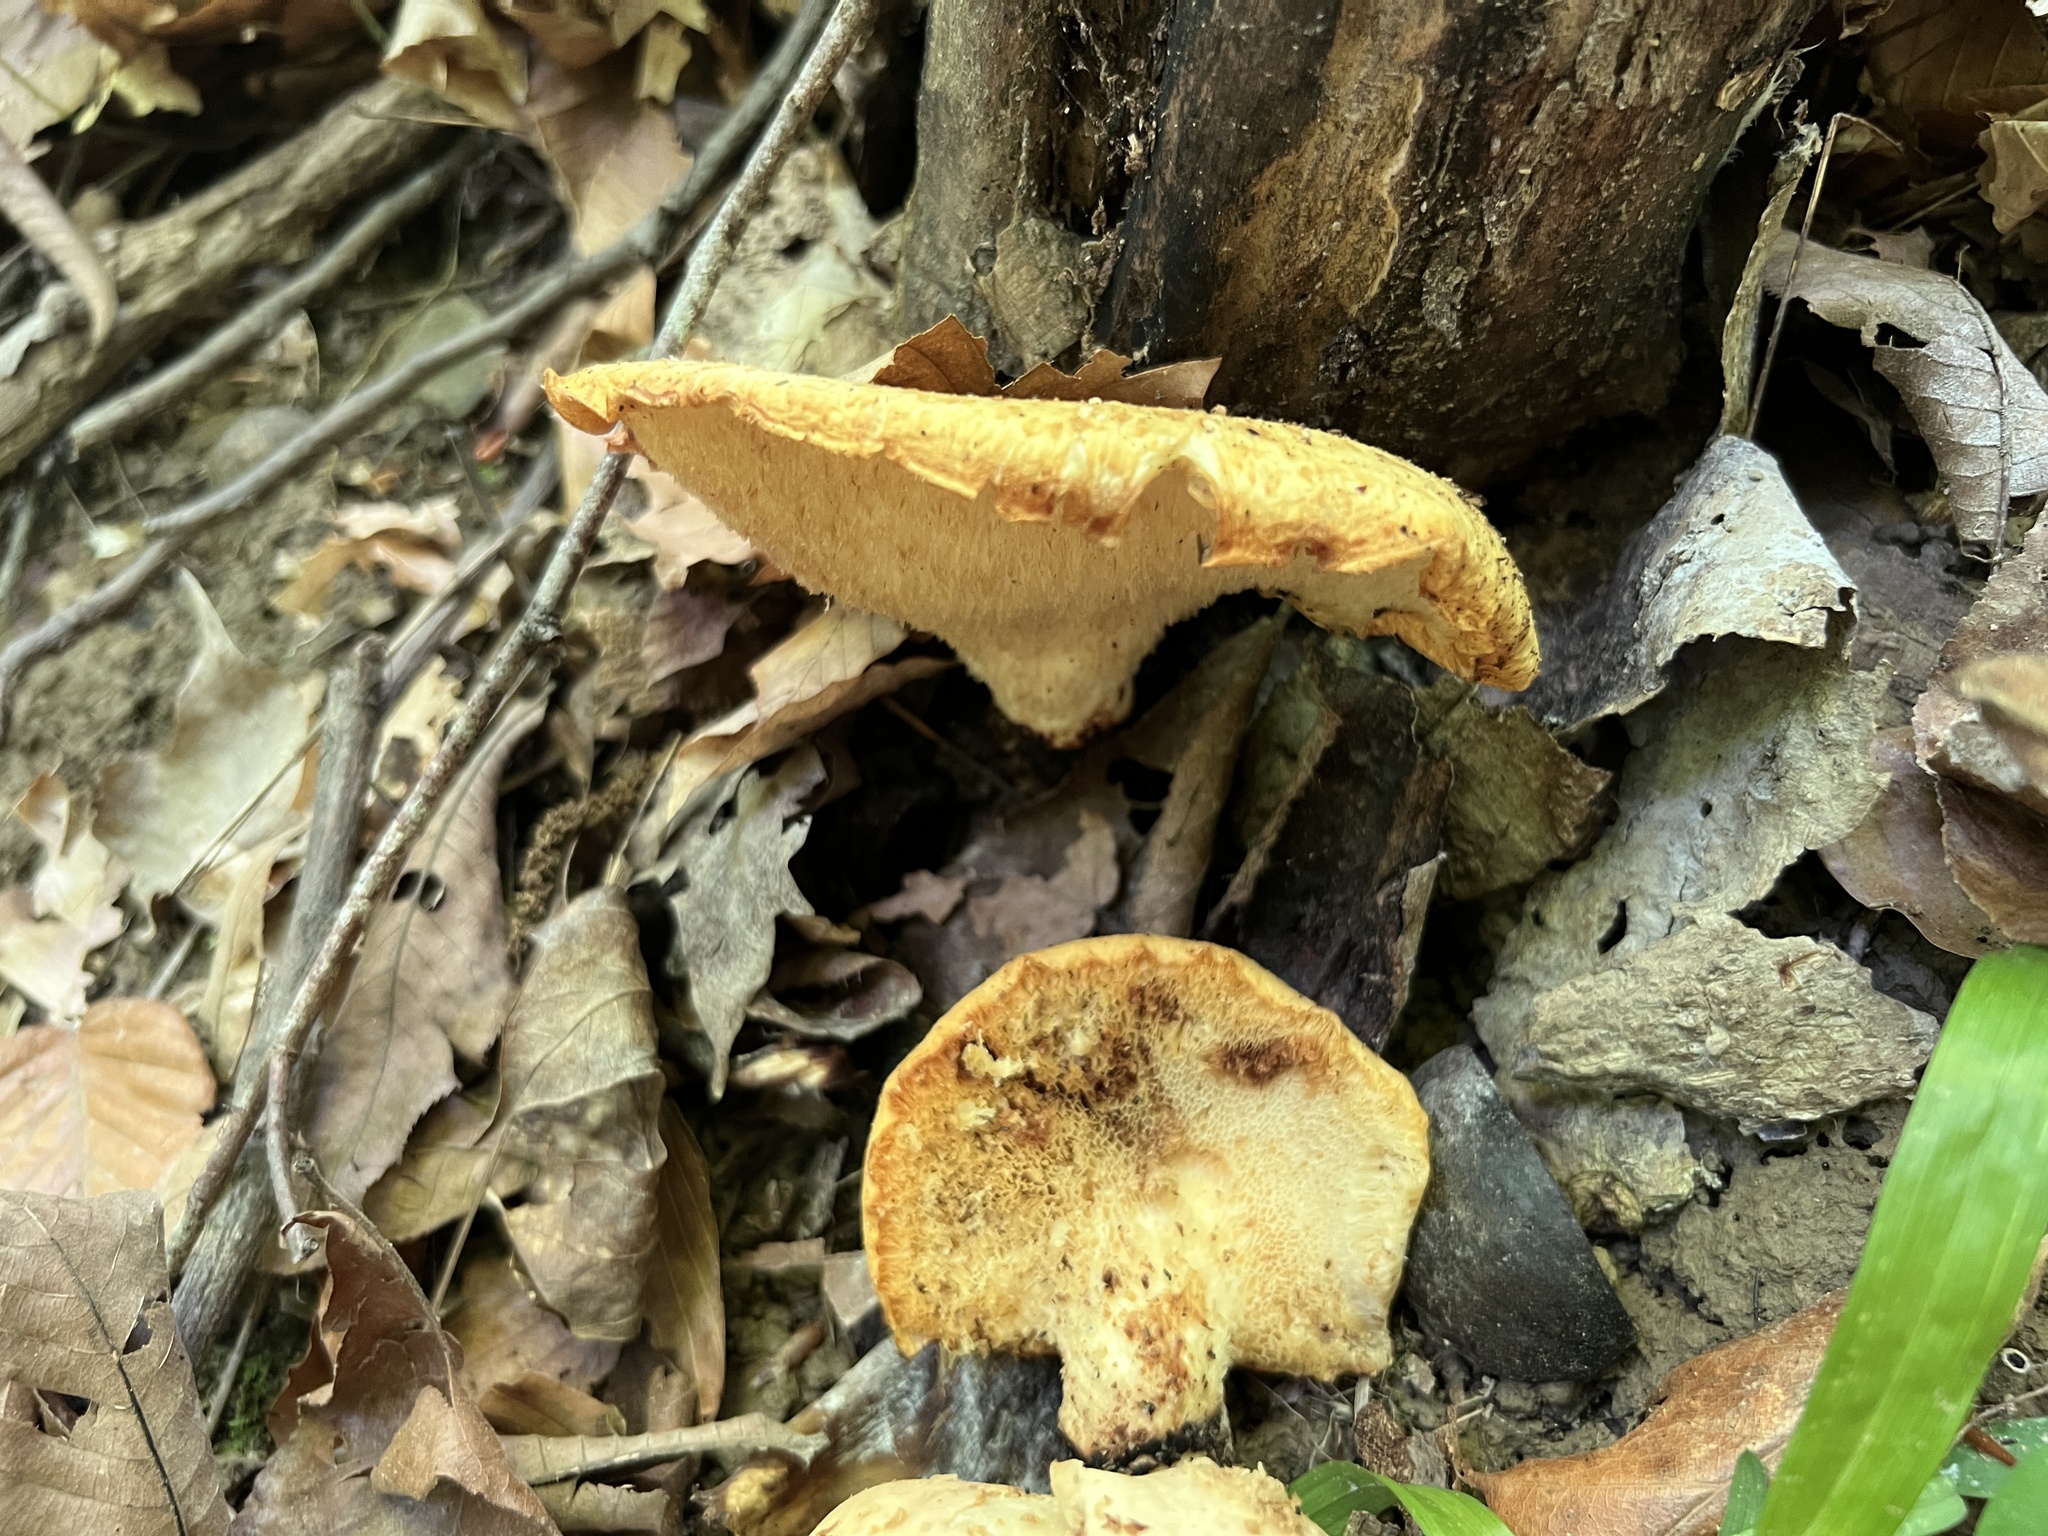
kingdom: Fungi
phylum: Basidiomycota
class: Agaricomycetes
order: Polyporales
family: Polyporaceae
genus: Cerioporus
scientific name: Cerioporus squamosus
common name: Dryad's saddle
